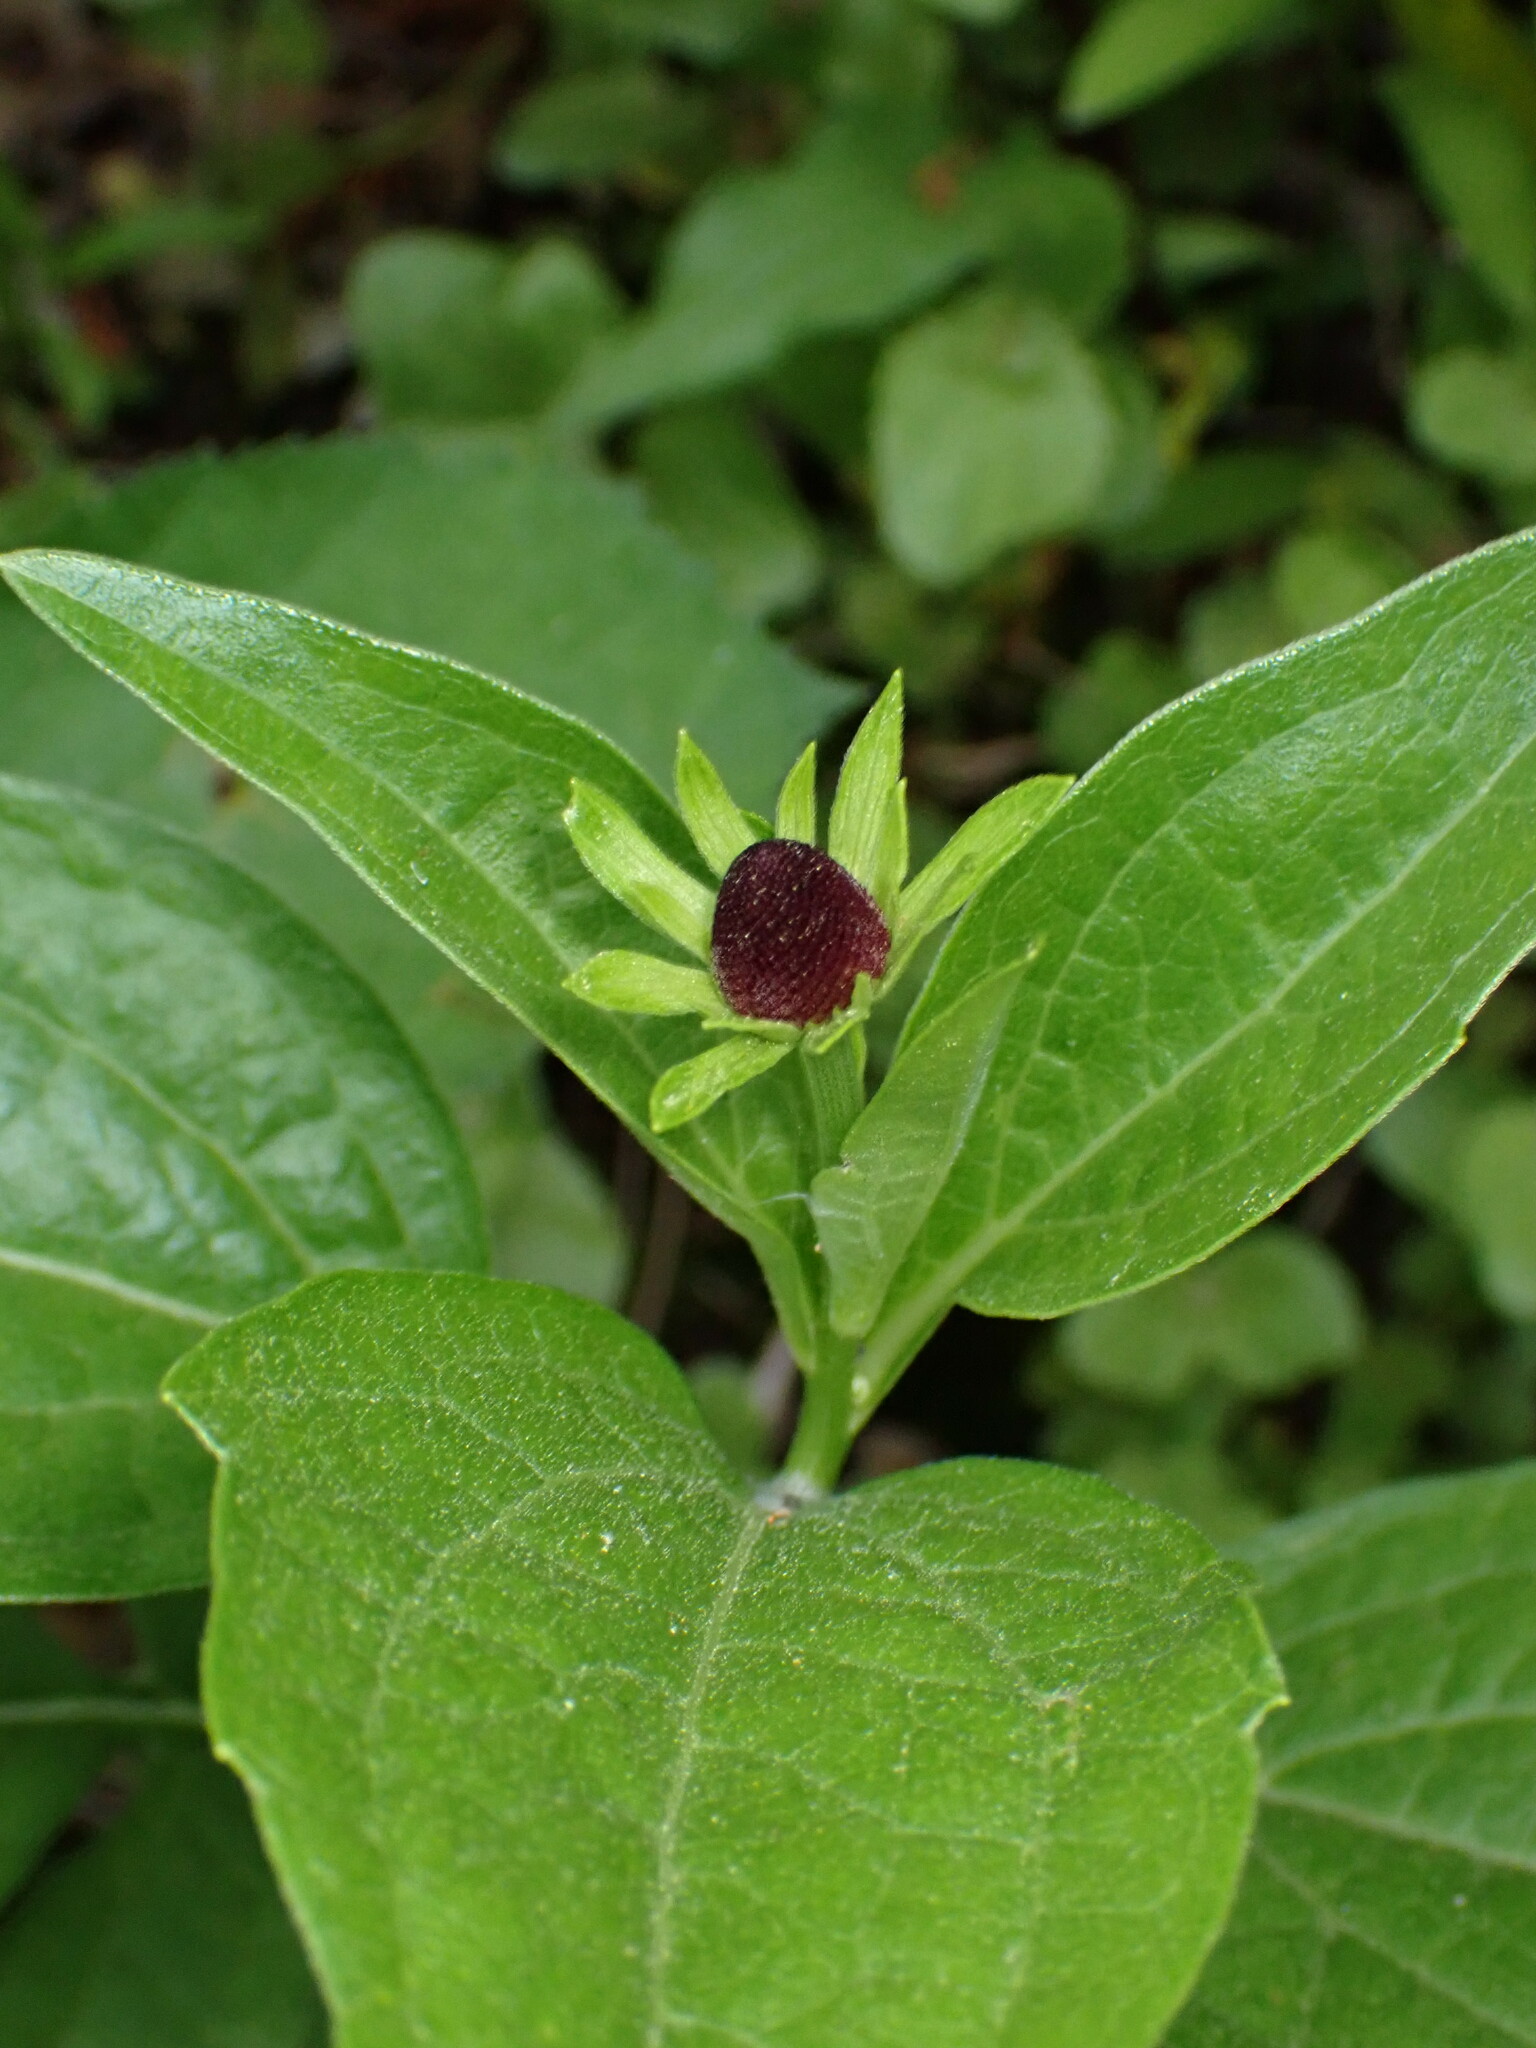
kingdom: Plantae
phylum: Tracheophyta
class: Magnoliopsida
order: Asterales
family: Asteraceae
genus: Rudbeckia
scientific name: Rudbeckia occidentalis
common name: Western coneflower
